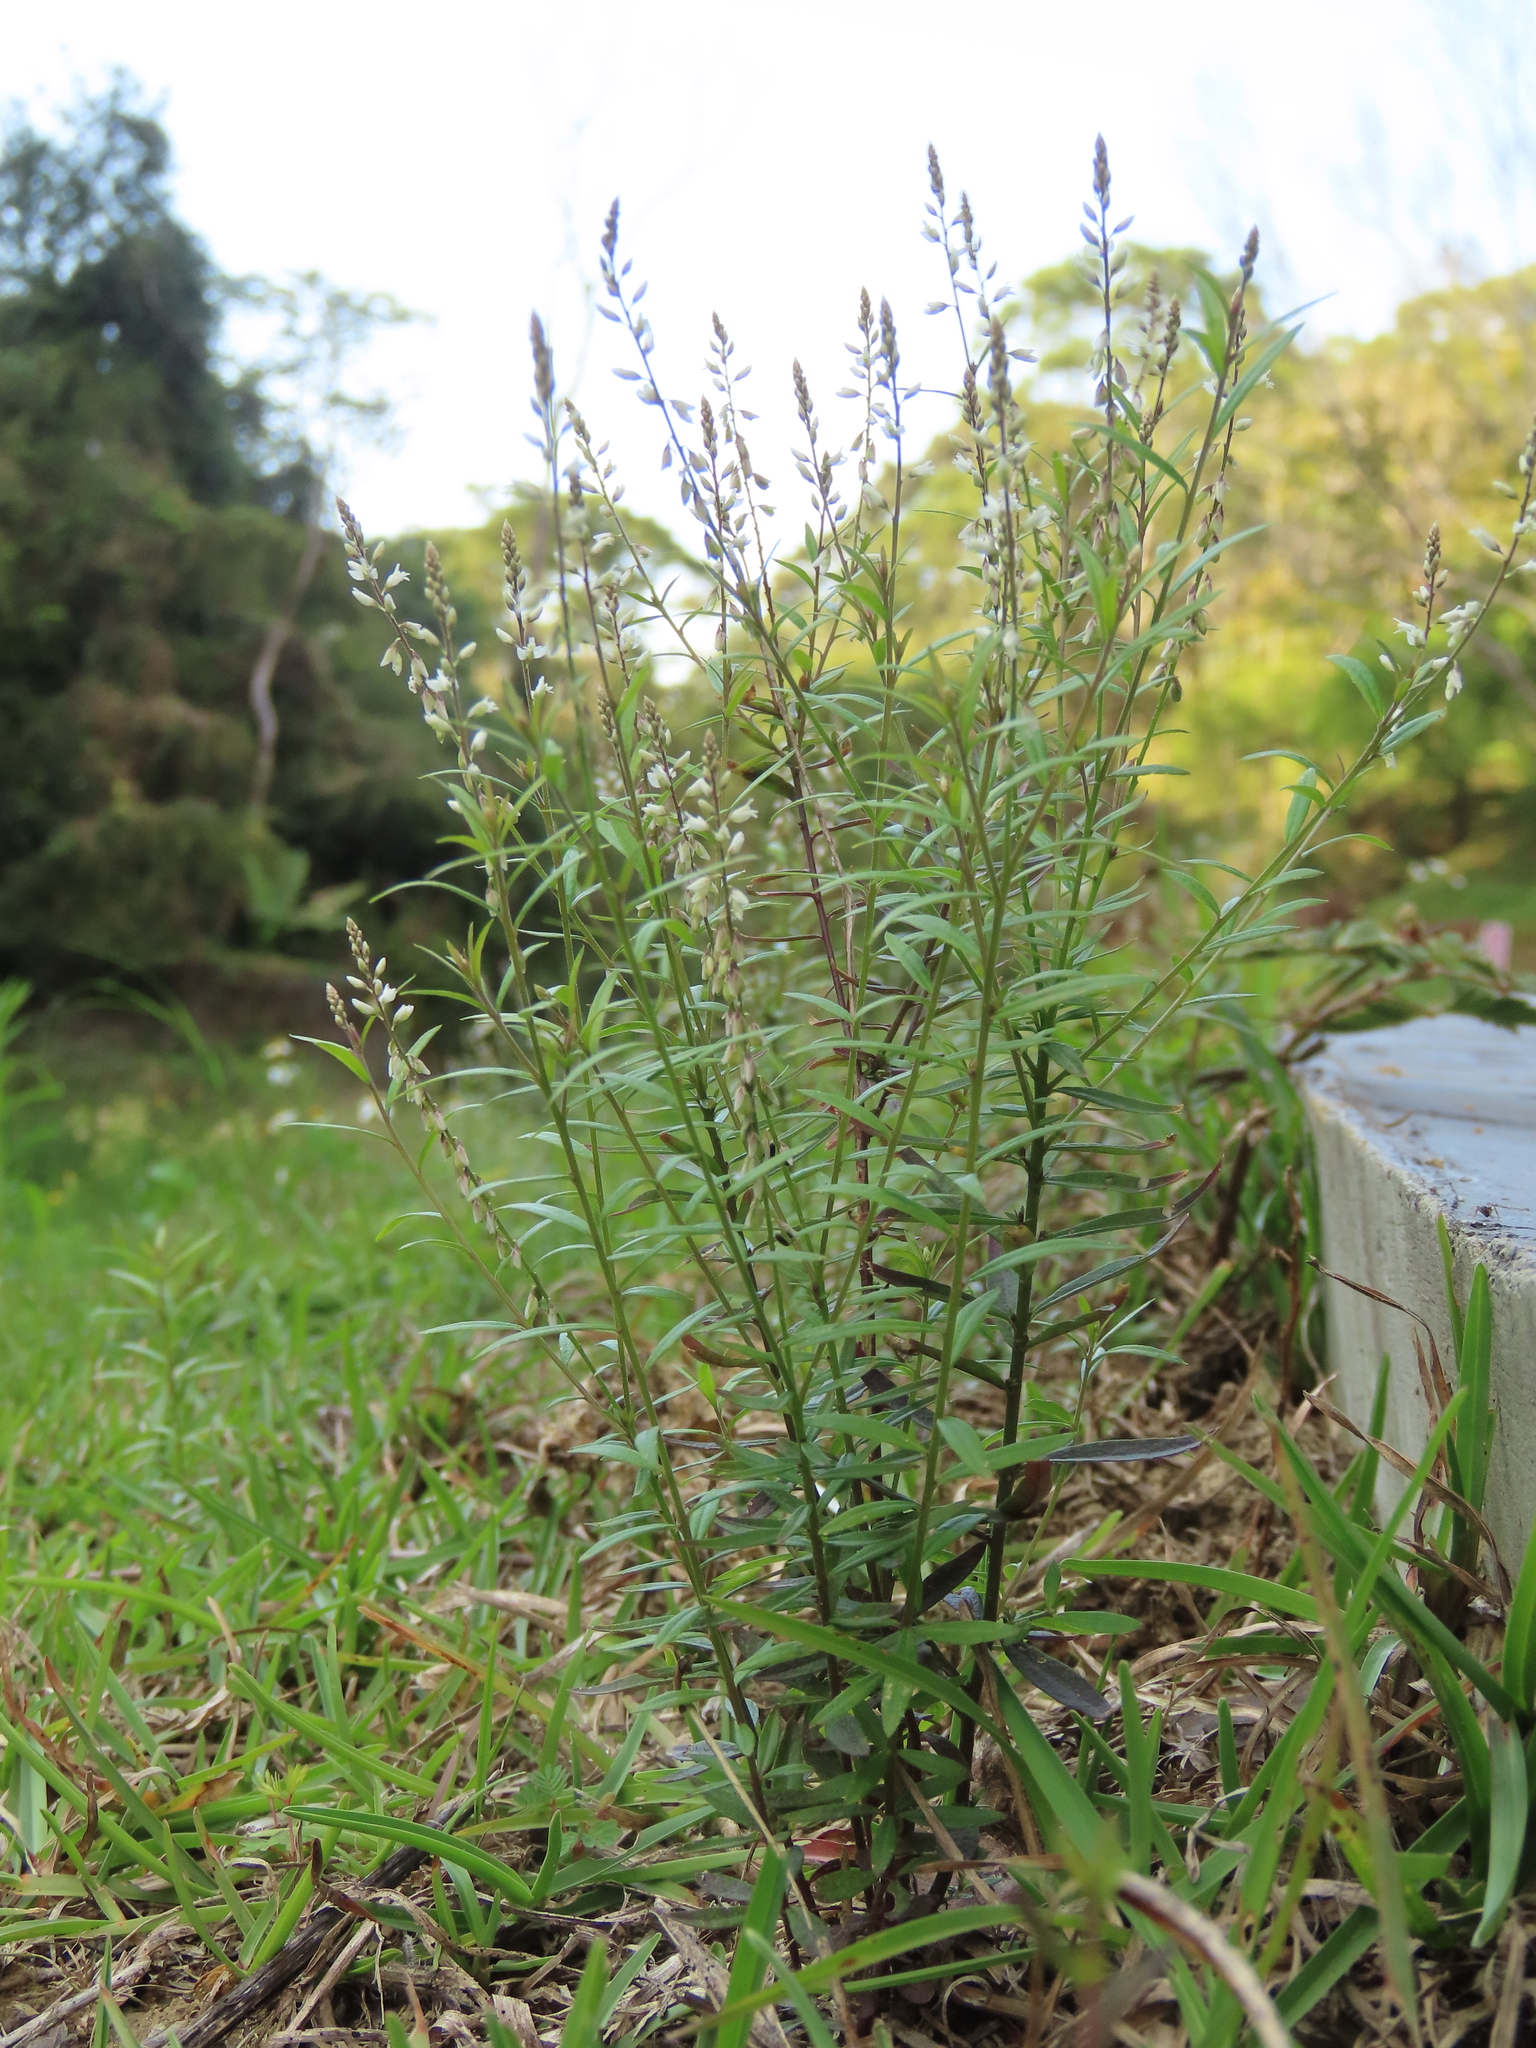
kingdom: Plantae
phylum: Tracheophyta
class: Magnoliopsida
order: Fabales
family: Polygalaceae
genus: Polygala
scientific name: Polygala paniculata
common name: Orosne
